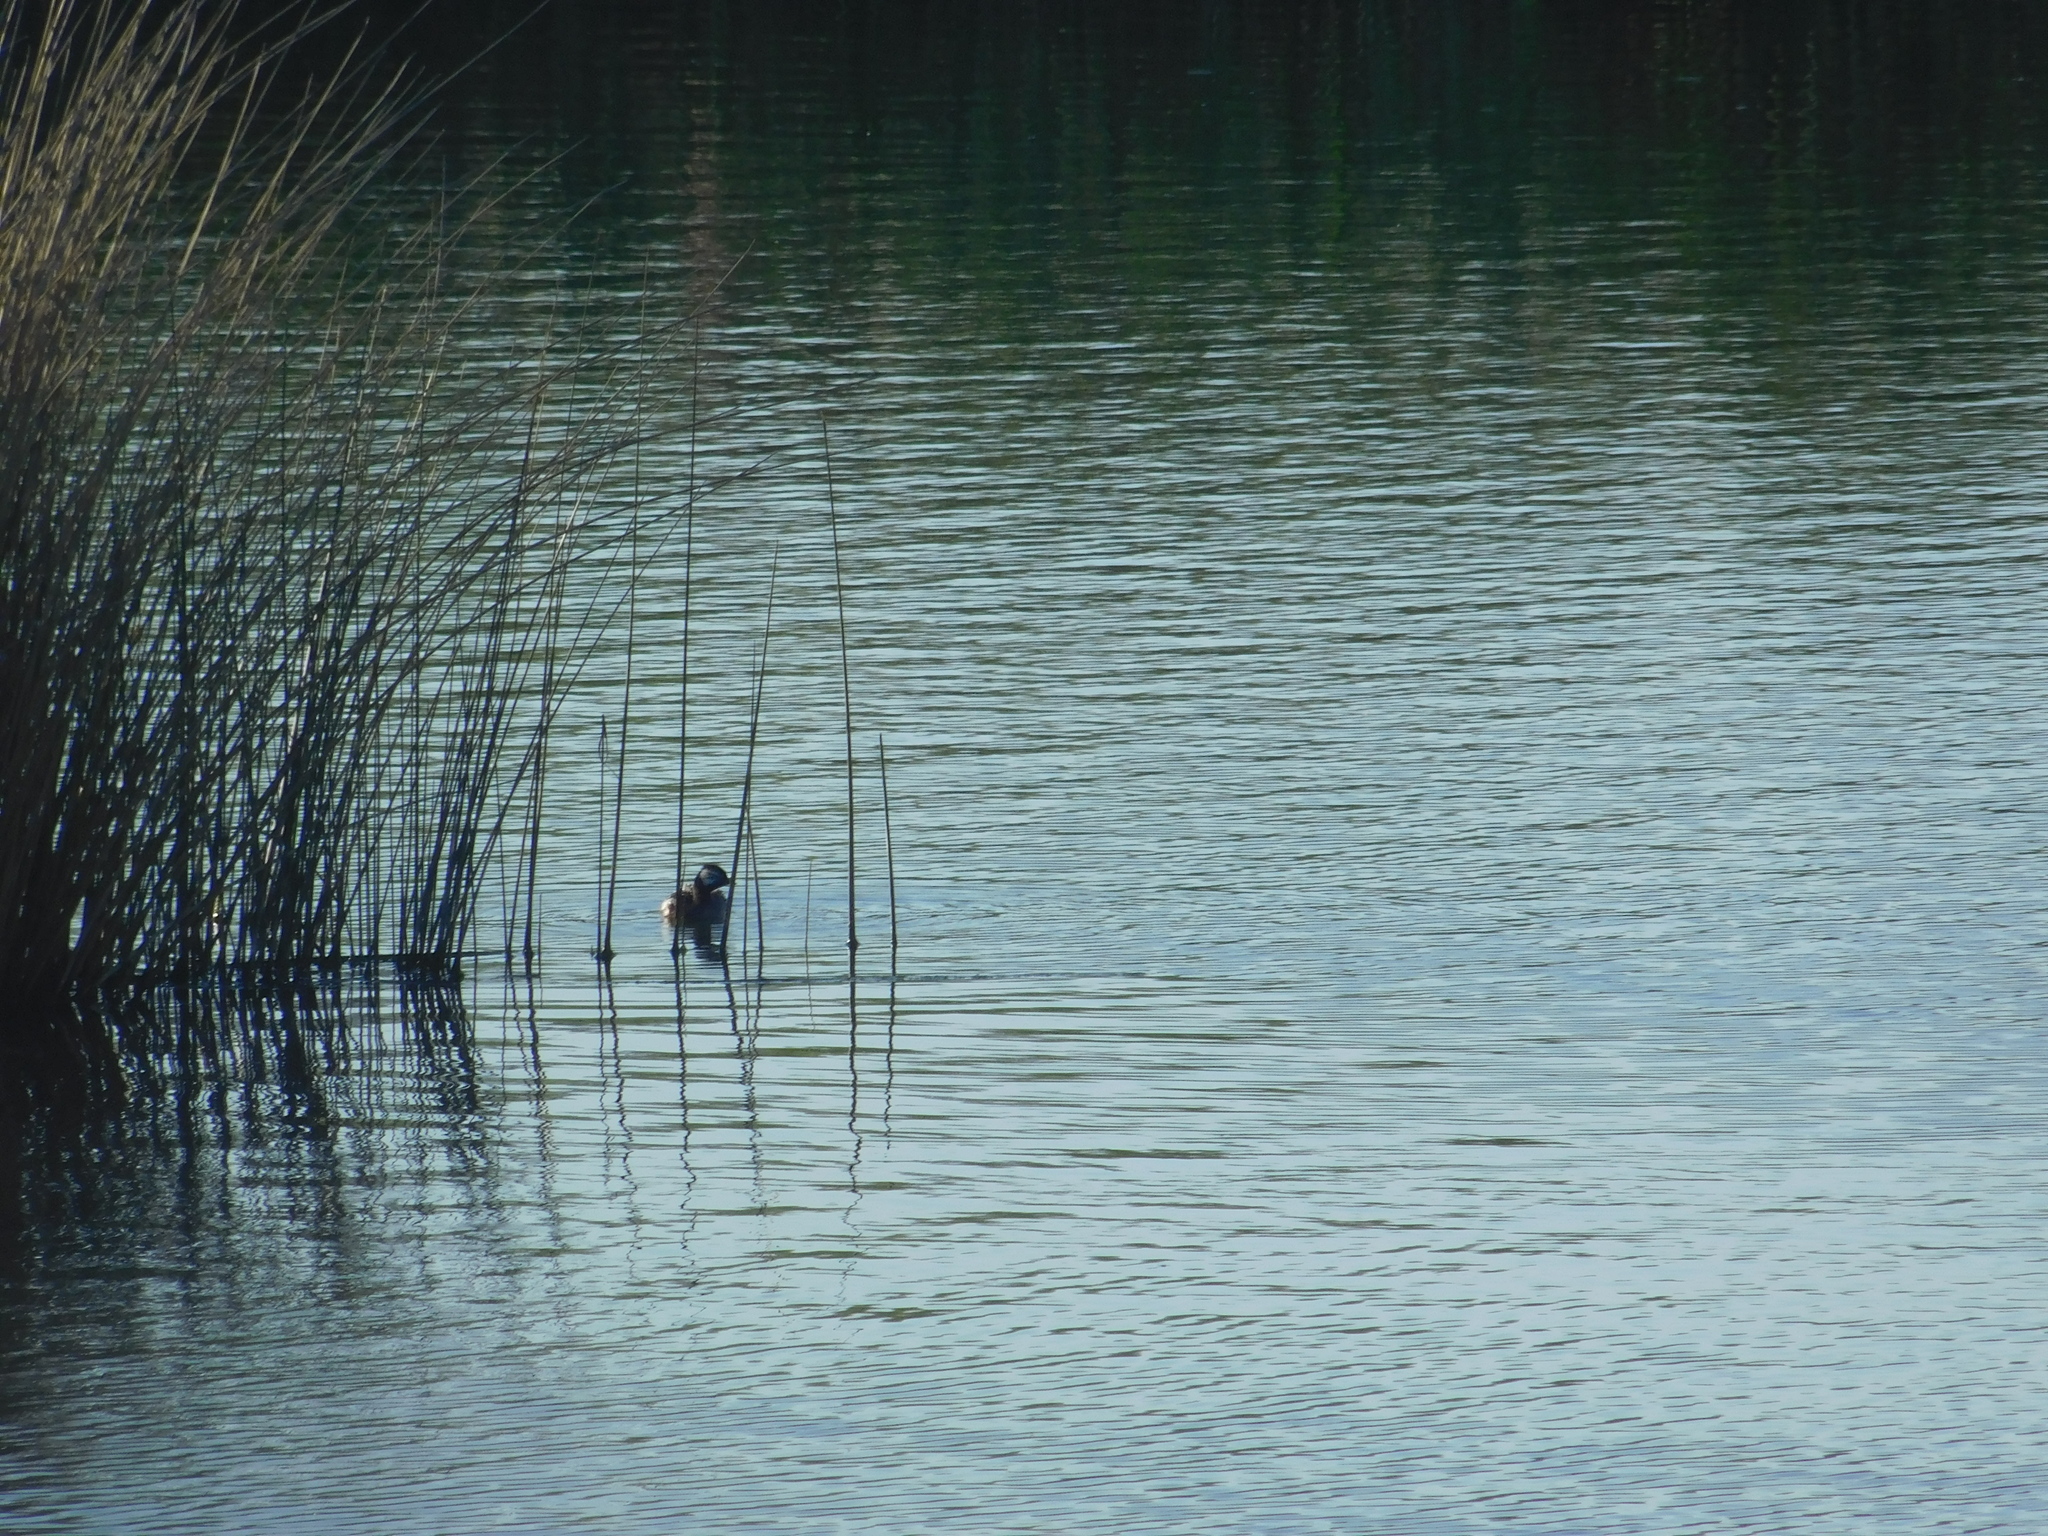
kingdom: Animalia
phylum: Chordata
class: Aves
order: Podicipediformes
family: Podicipedidae
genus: Rollandia
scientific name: Rollandia rolland
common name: White-tufted grebe
